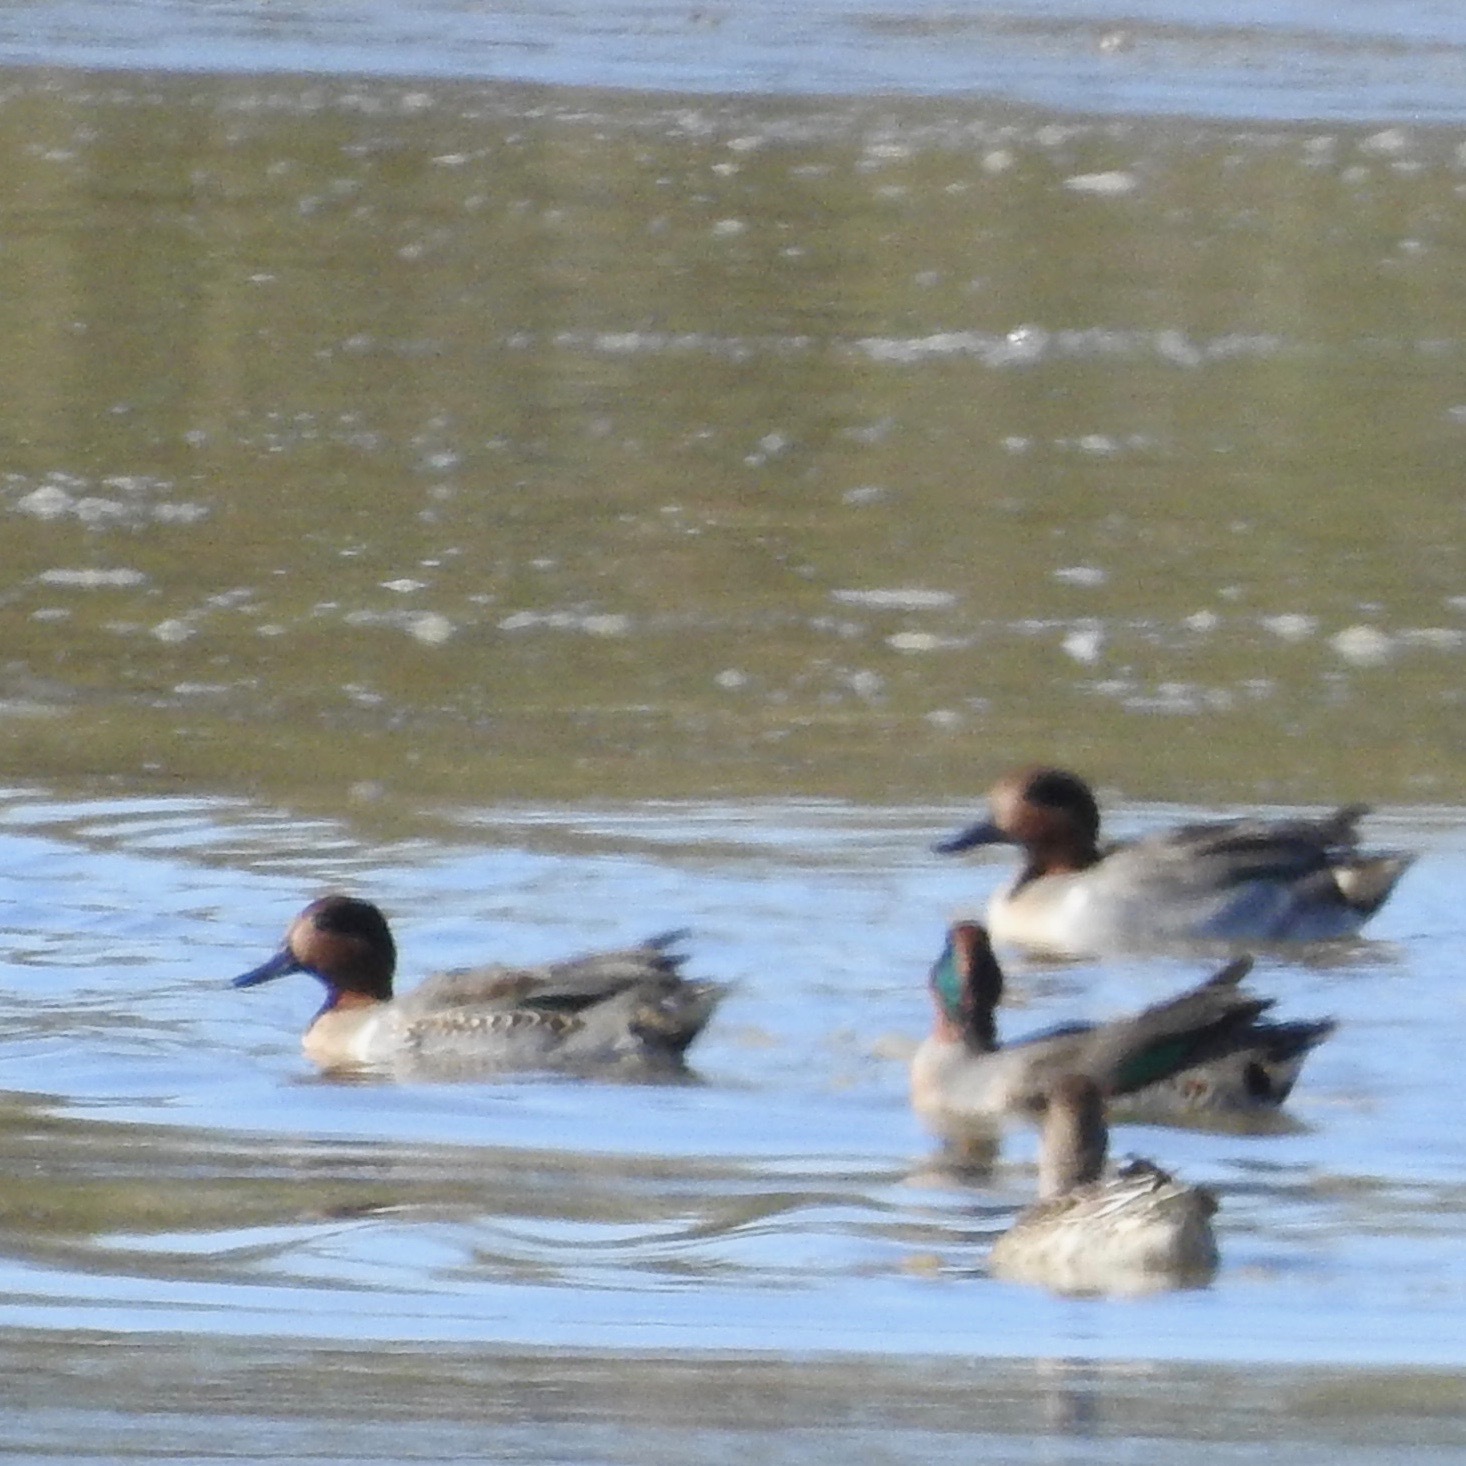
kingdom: Animalia
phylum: Chordata
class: Aves
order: Anseriformes
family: Anatidae
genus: Anas
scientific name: Anas crecca
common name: Eurasian teal
